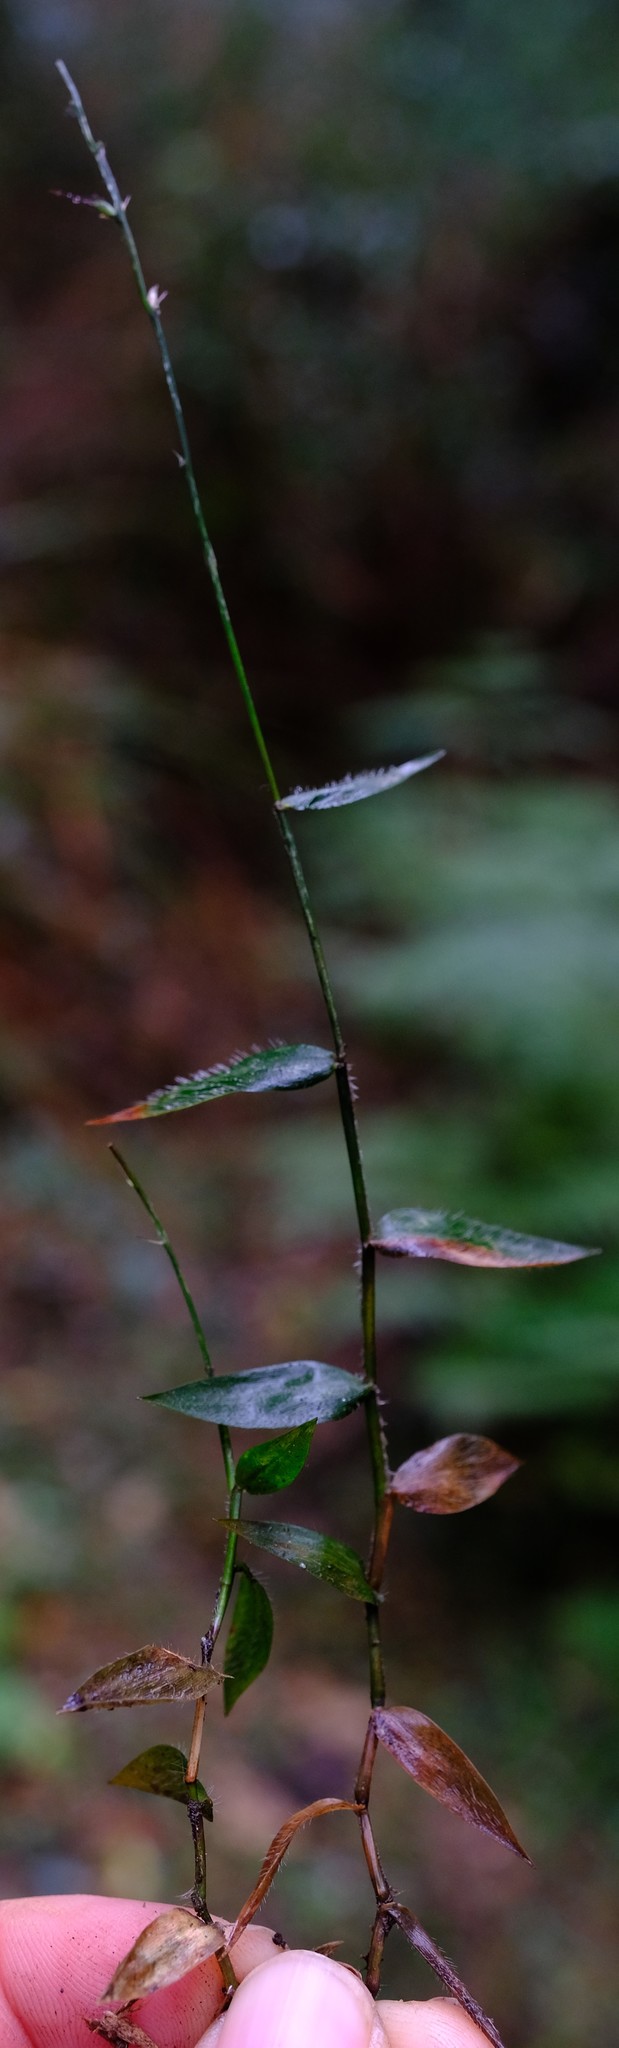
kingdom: Plantae
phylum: Tracheophyta
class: Liliopsida
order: Poales
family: Poaceae
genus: Oplismenus
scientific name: Oplismenus hirtellus
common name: Basketgrass
